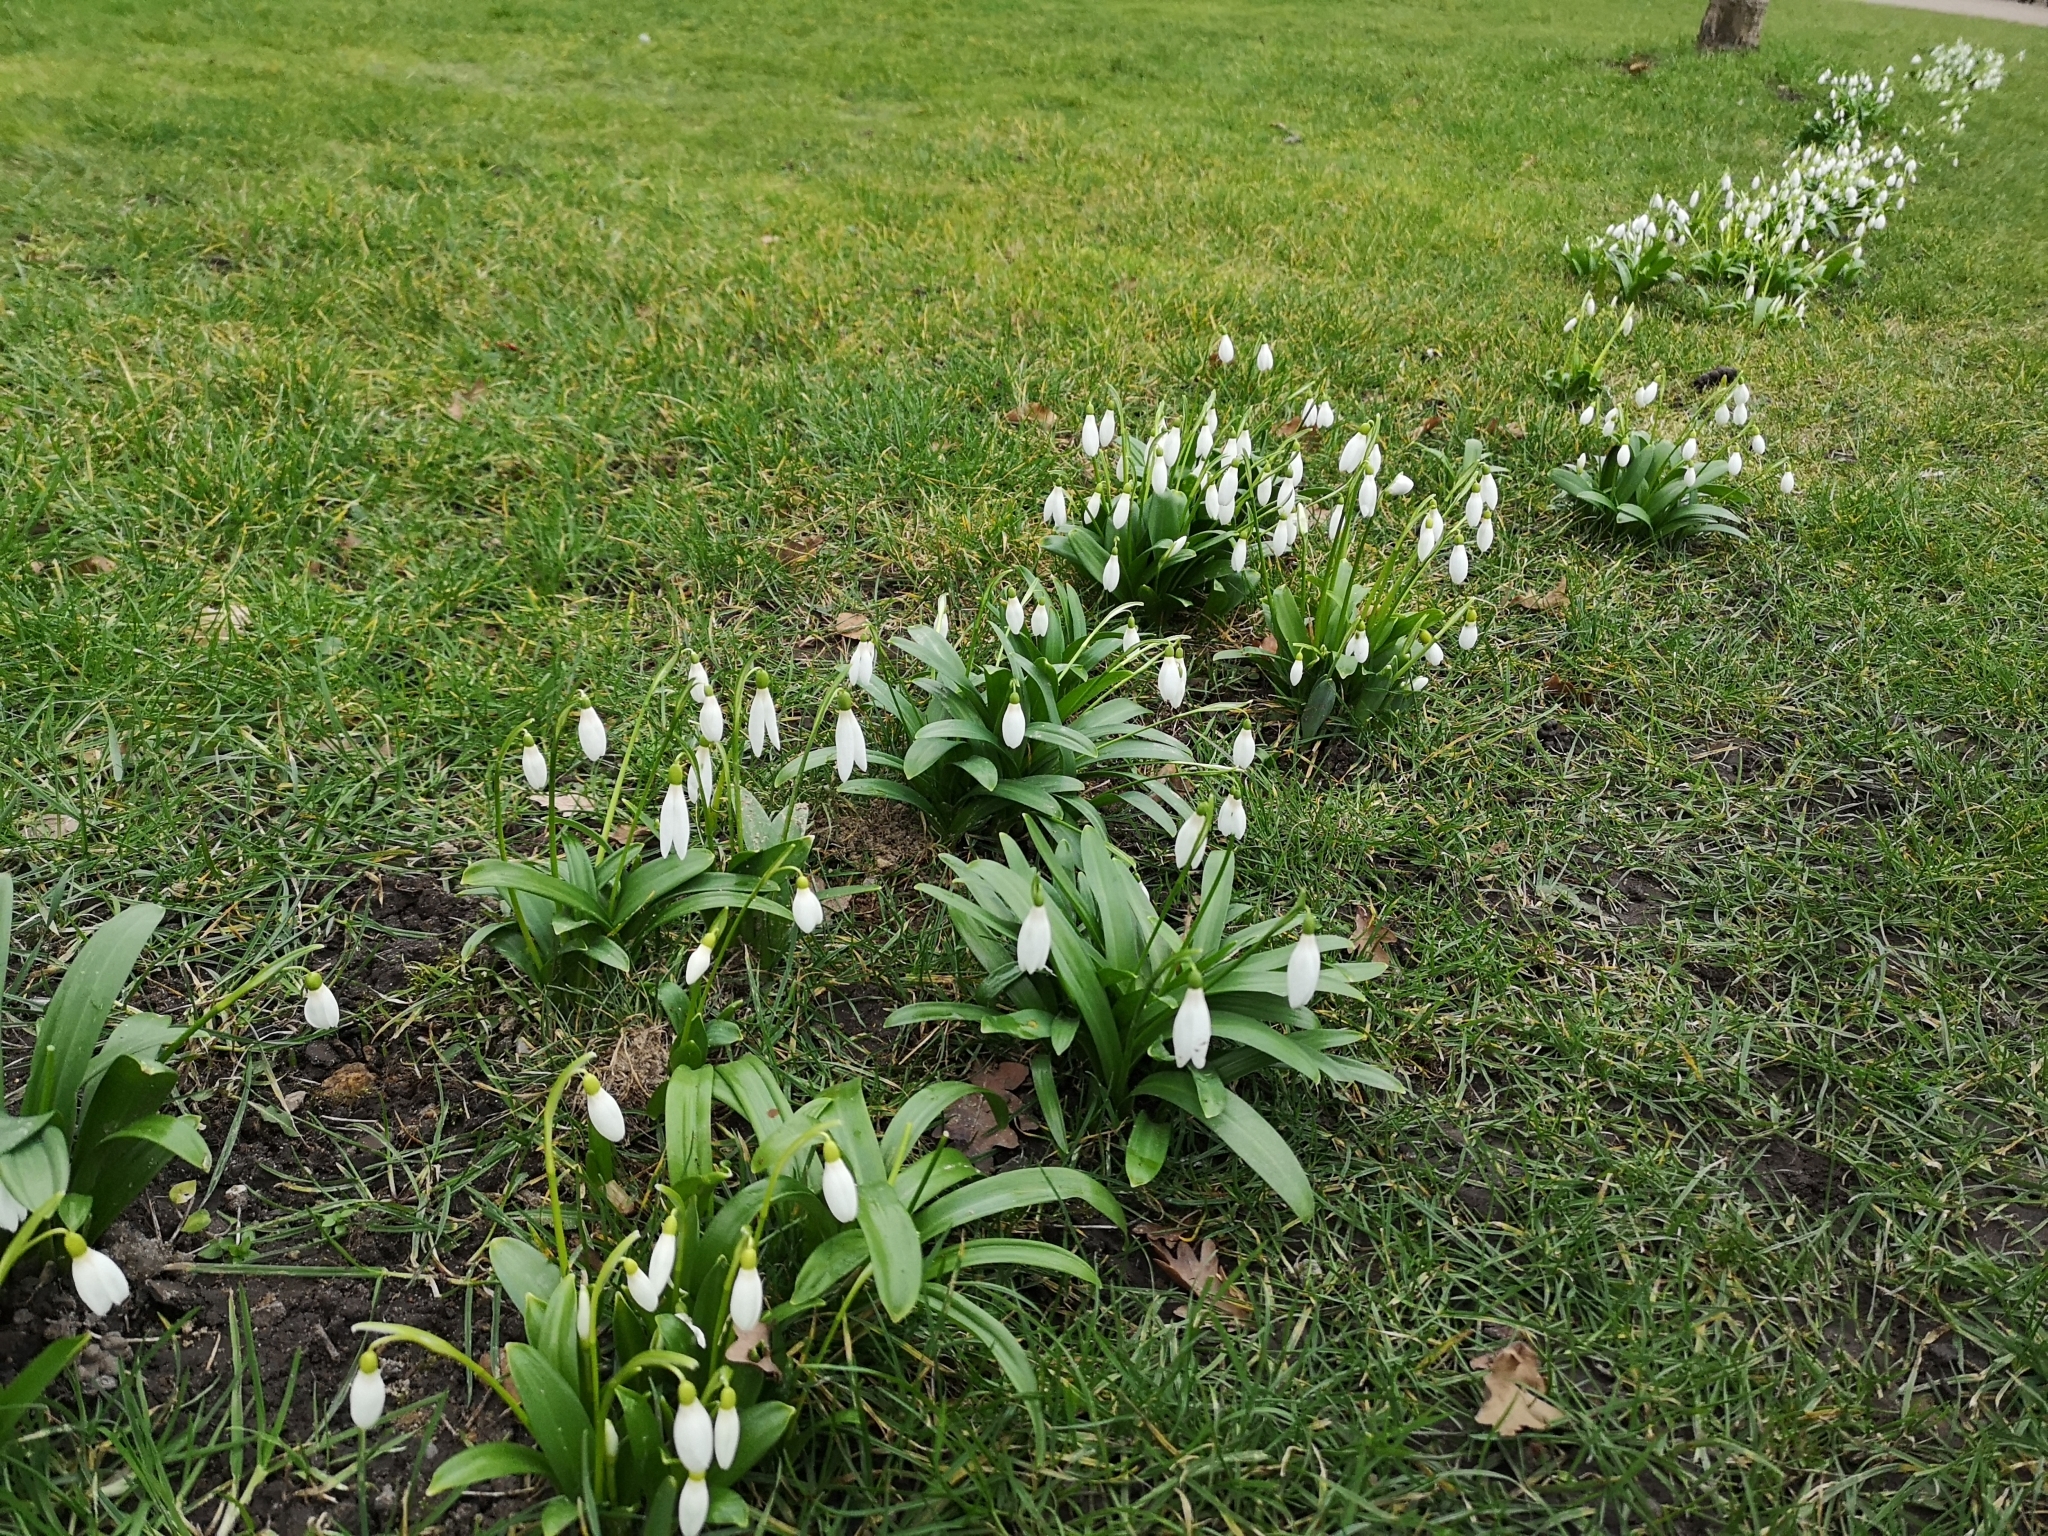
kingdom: Plantae
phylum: Tracheophyta
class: Liliopsida
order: Asparagales
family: Amaryllidaceae
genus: Galanthus
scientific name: Galanthus woronowii
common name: Green snowdrop
